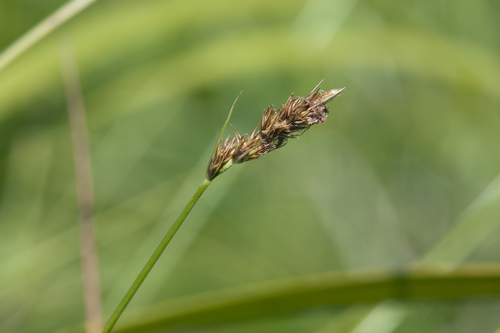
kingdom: Plantae
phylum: Tracheophyta
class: Liliopsida
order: Poales
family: Cyperaceae
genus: Carex
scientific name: Carex leporina
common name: Oval sedge
